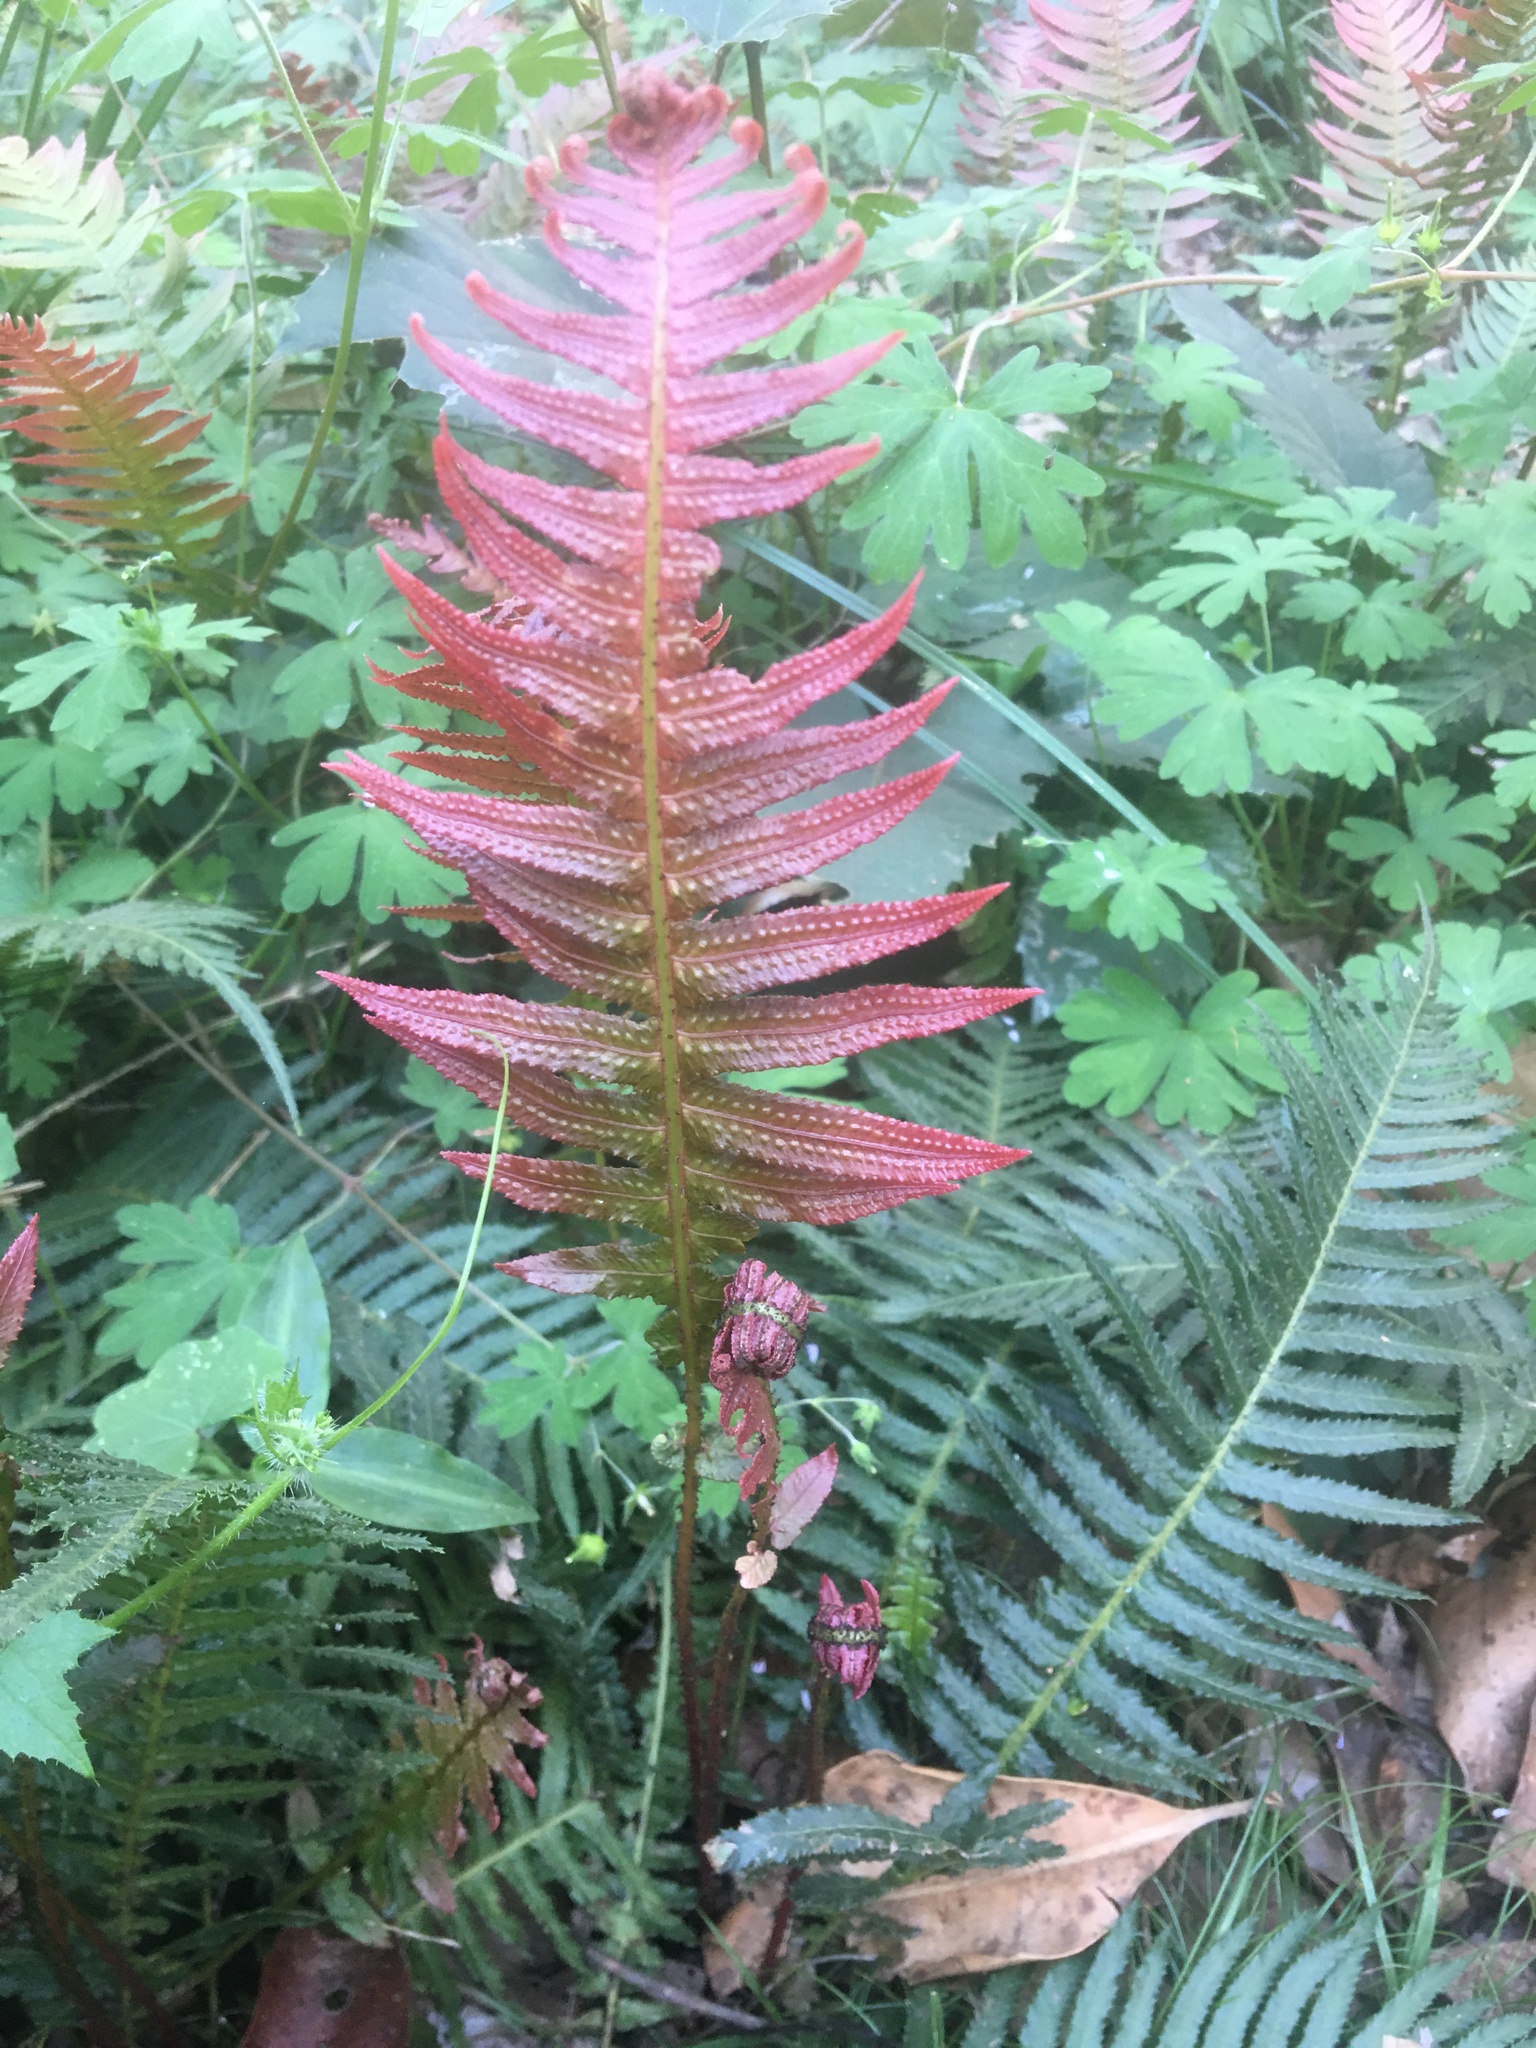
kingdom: Plantae
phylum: Tracheophyta
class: Polypodiopsida
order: Polypodiales
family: Blechnaceae
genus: Doodia
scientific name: Doodia aspera
